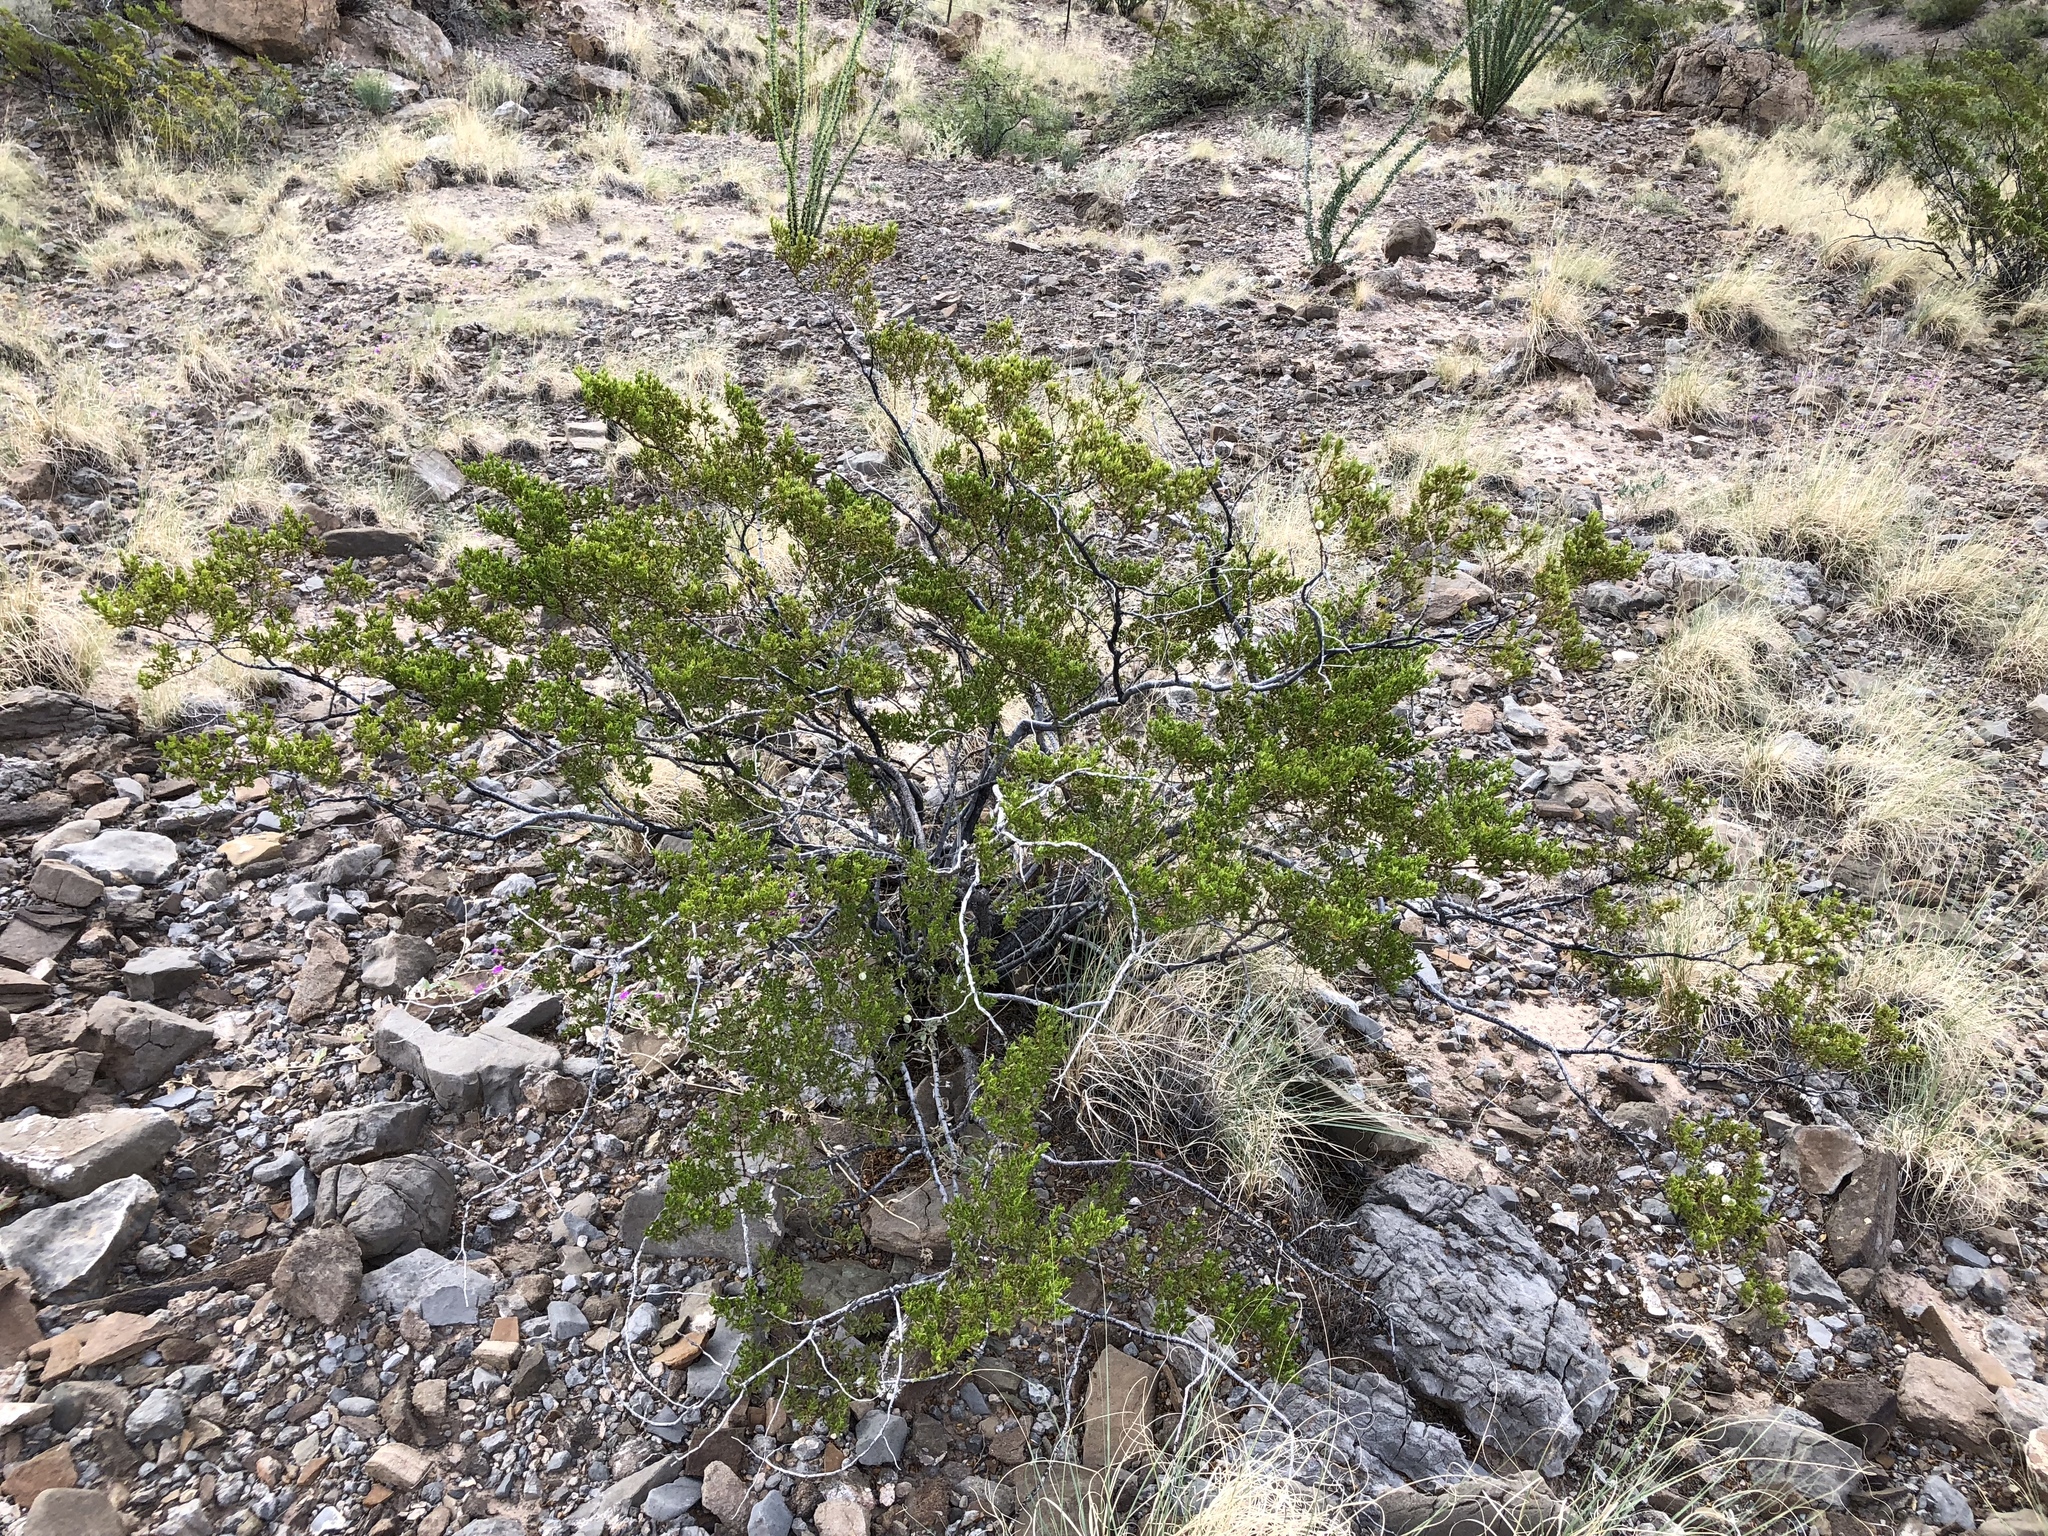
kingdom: Plantae
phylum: Tracheophyta
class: Magnoliopsida
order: Zygophyllales
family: Zygophyllaceae
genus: Larrea
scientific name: Larrea tridentata
